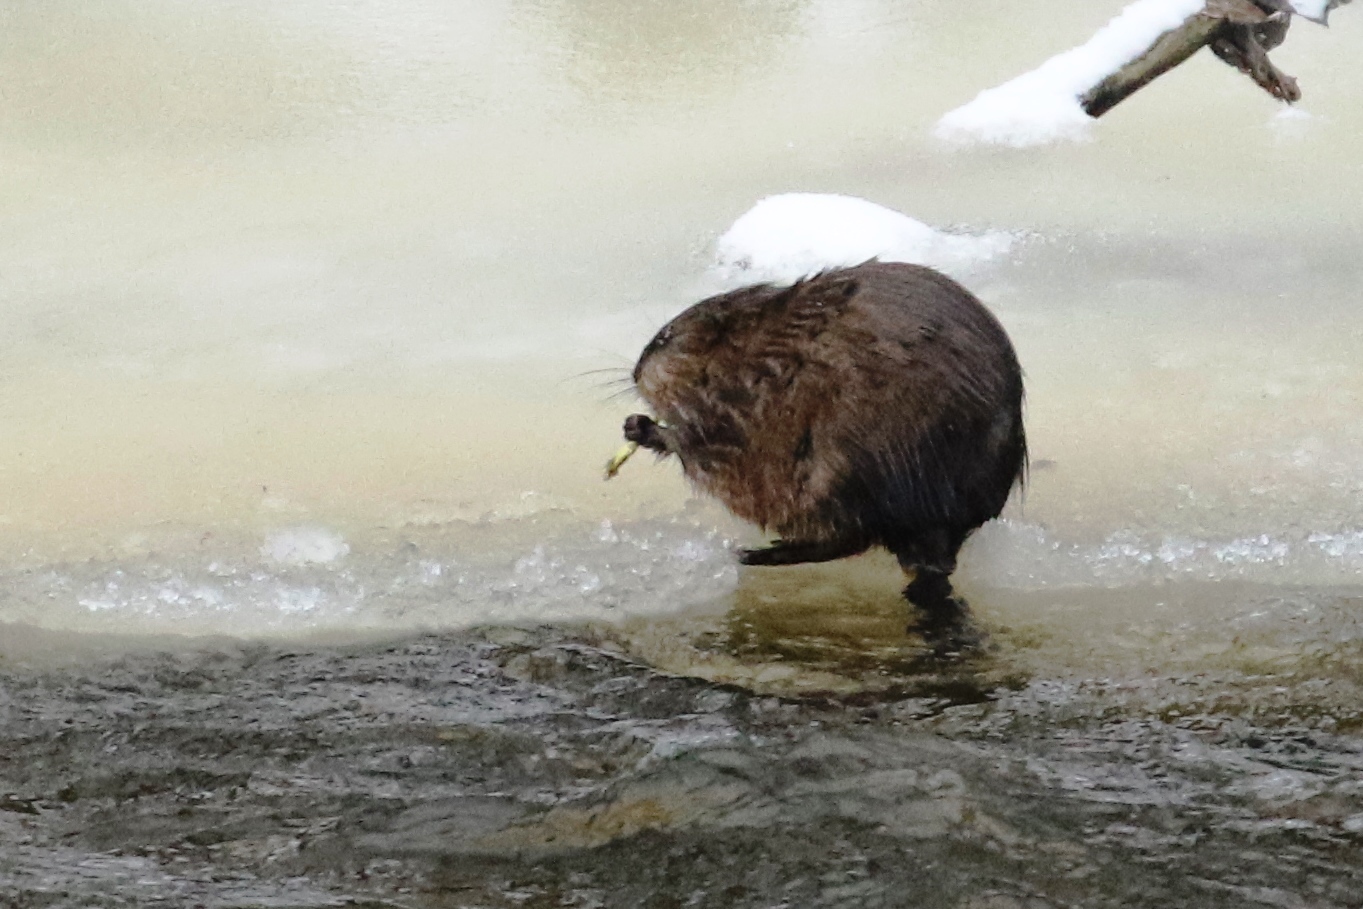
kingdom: Animalia
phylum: Chordata
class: Mammalia
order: Rodentia
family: Cricetidae
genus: Ondatra
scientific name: Ondatra zibethicus
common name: Muskrat
